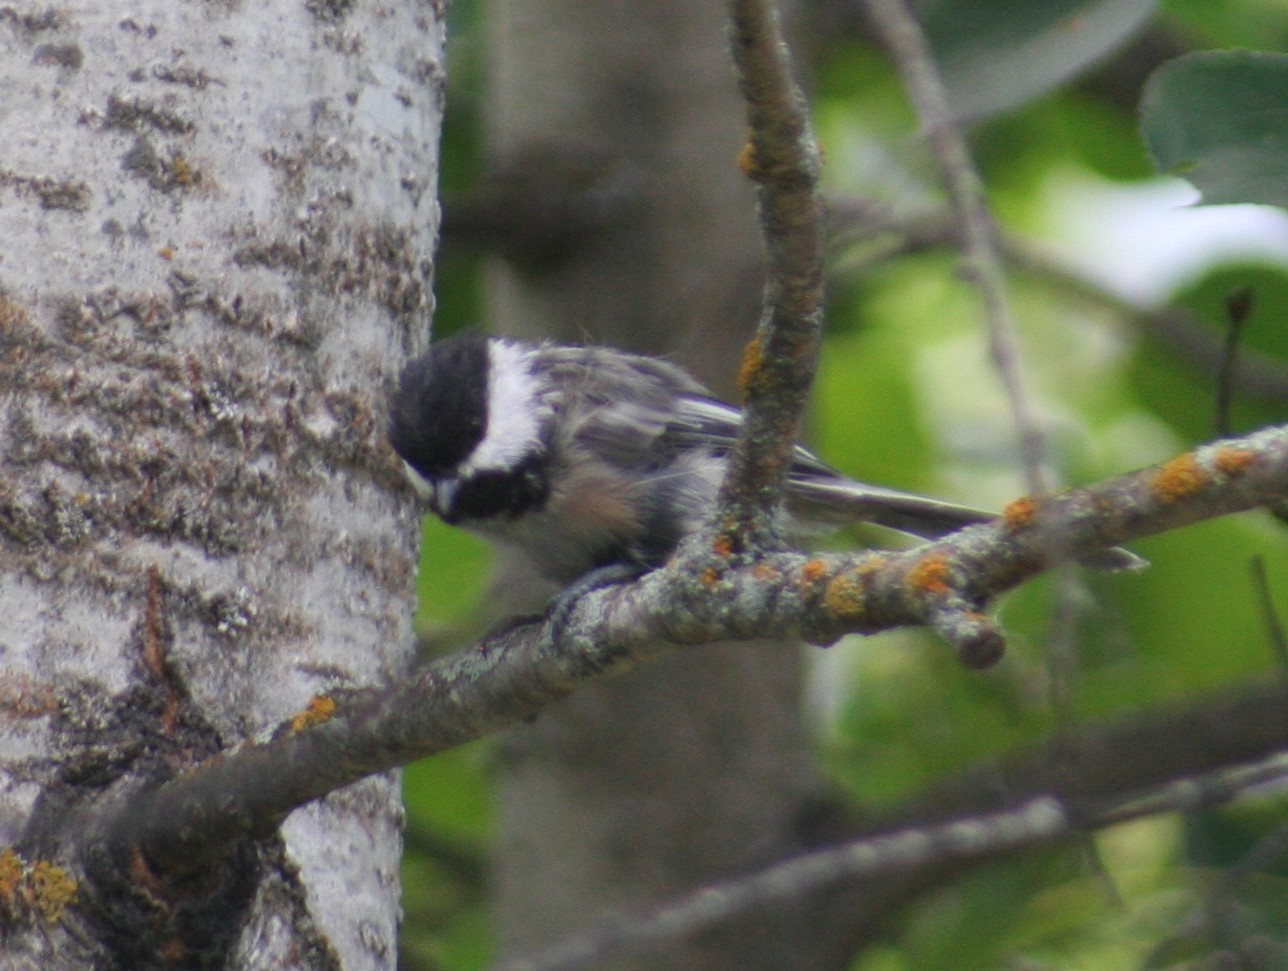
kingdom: Animalia
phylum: Chordata
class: Aves
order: Passeriformes
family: Paridae
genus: Poecile
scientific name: Poecile atricapillus
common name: Black-capped chickadee
